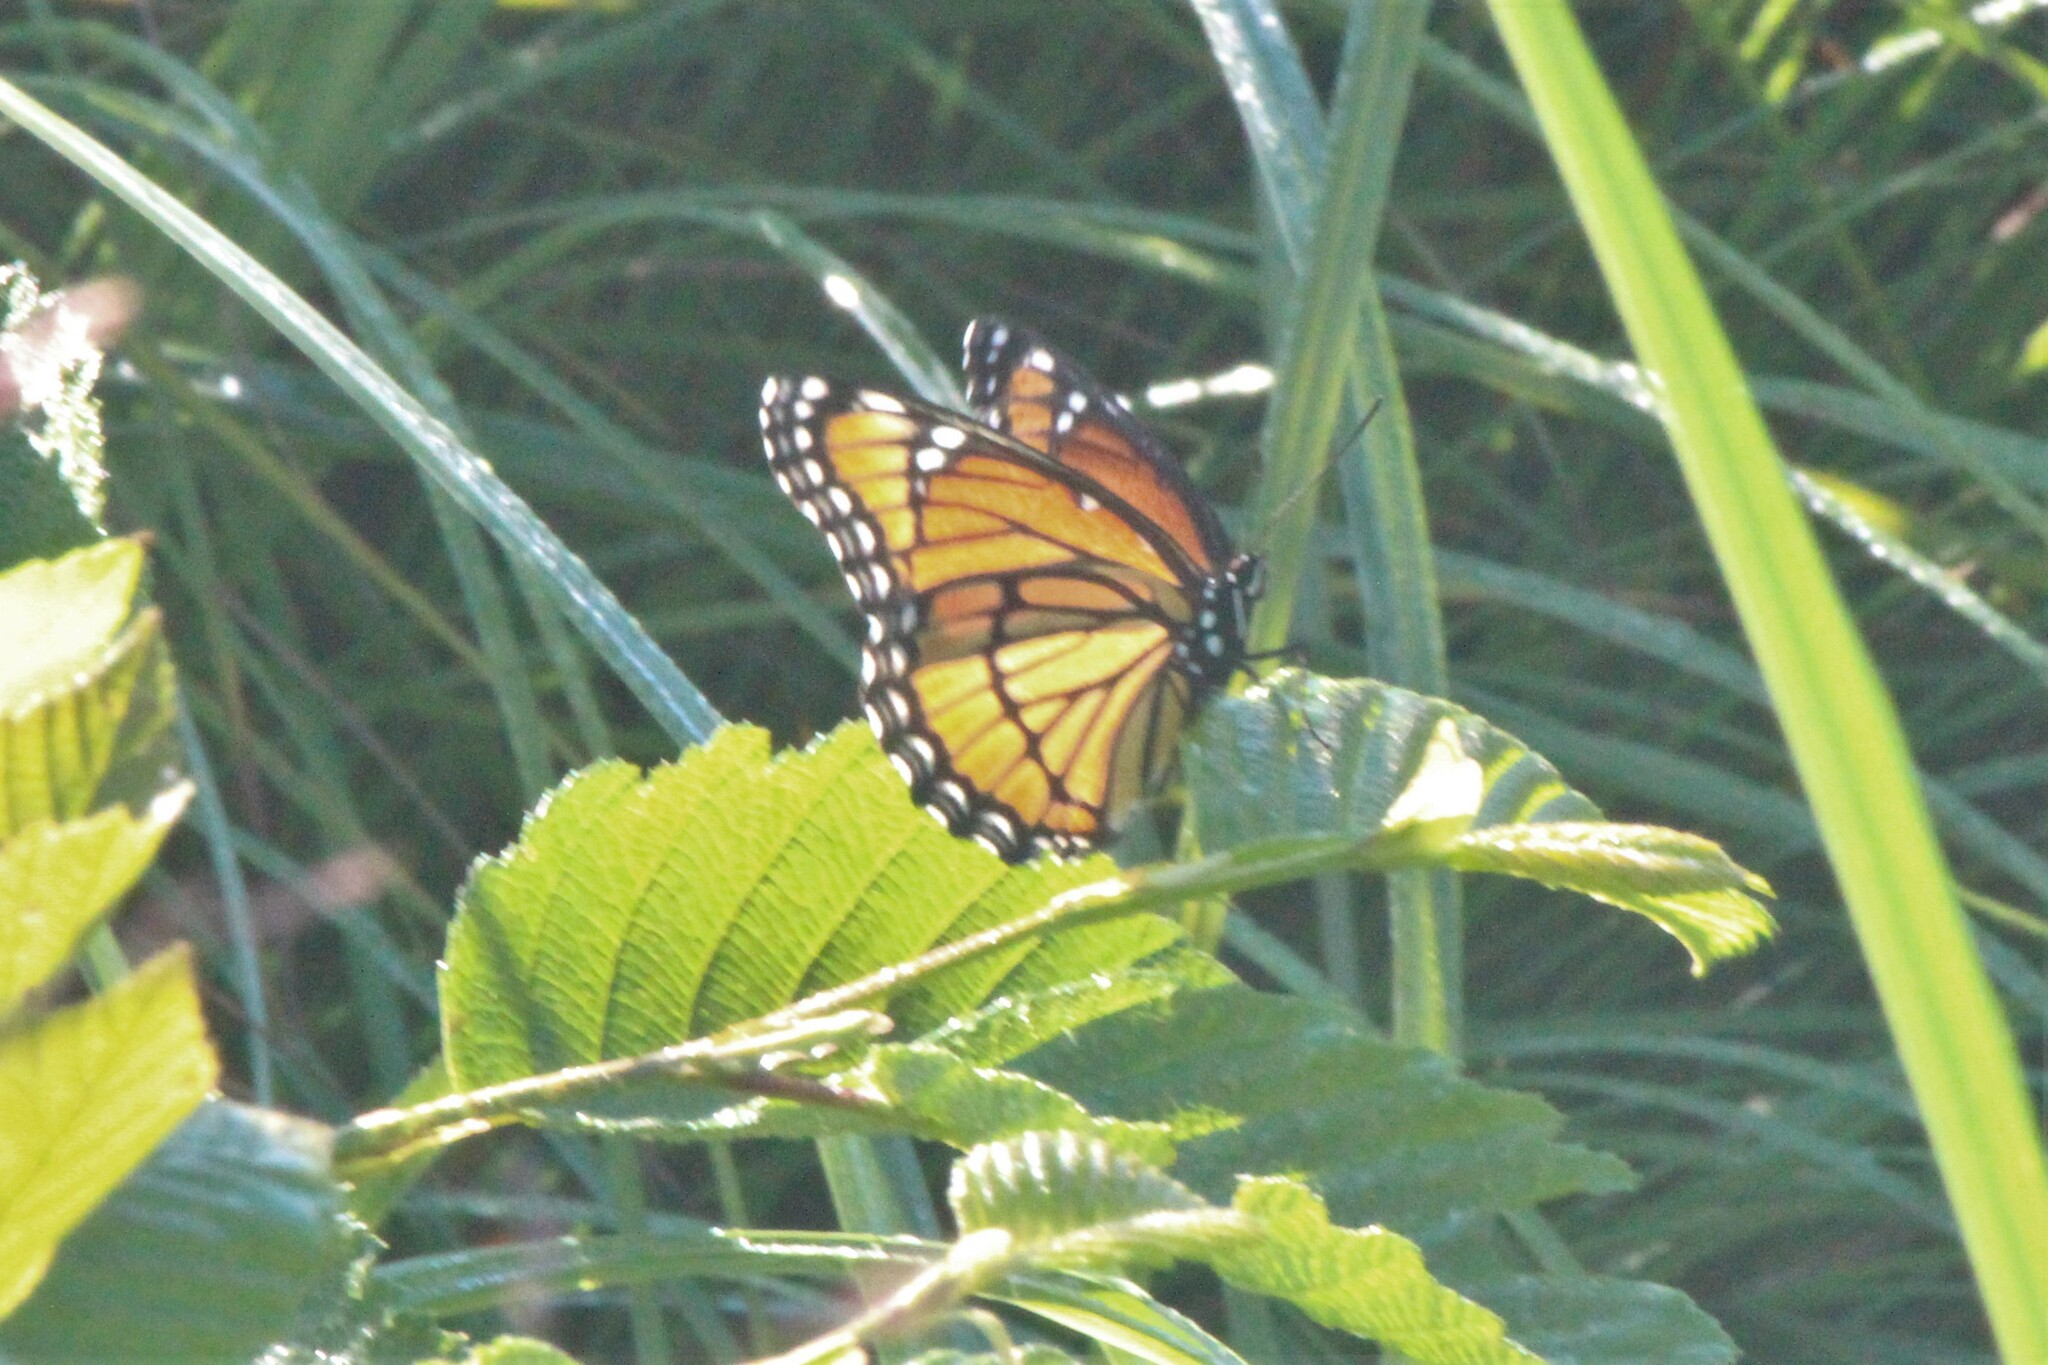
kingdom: Animalia
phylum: Arthropoda
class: Insecta
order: Lepidoptera
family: Nymphalidae
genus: Limenitis
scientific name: Limenitis archippus
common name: Viceroy
